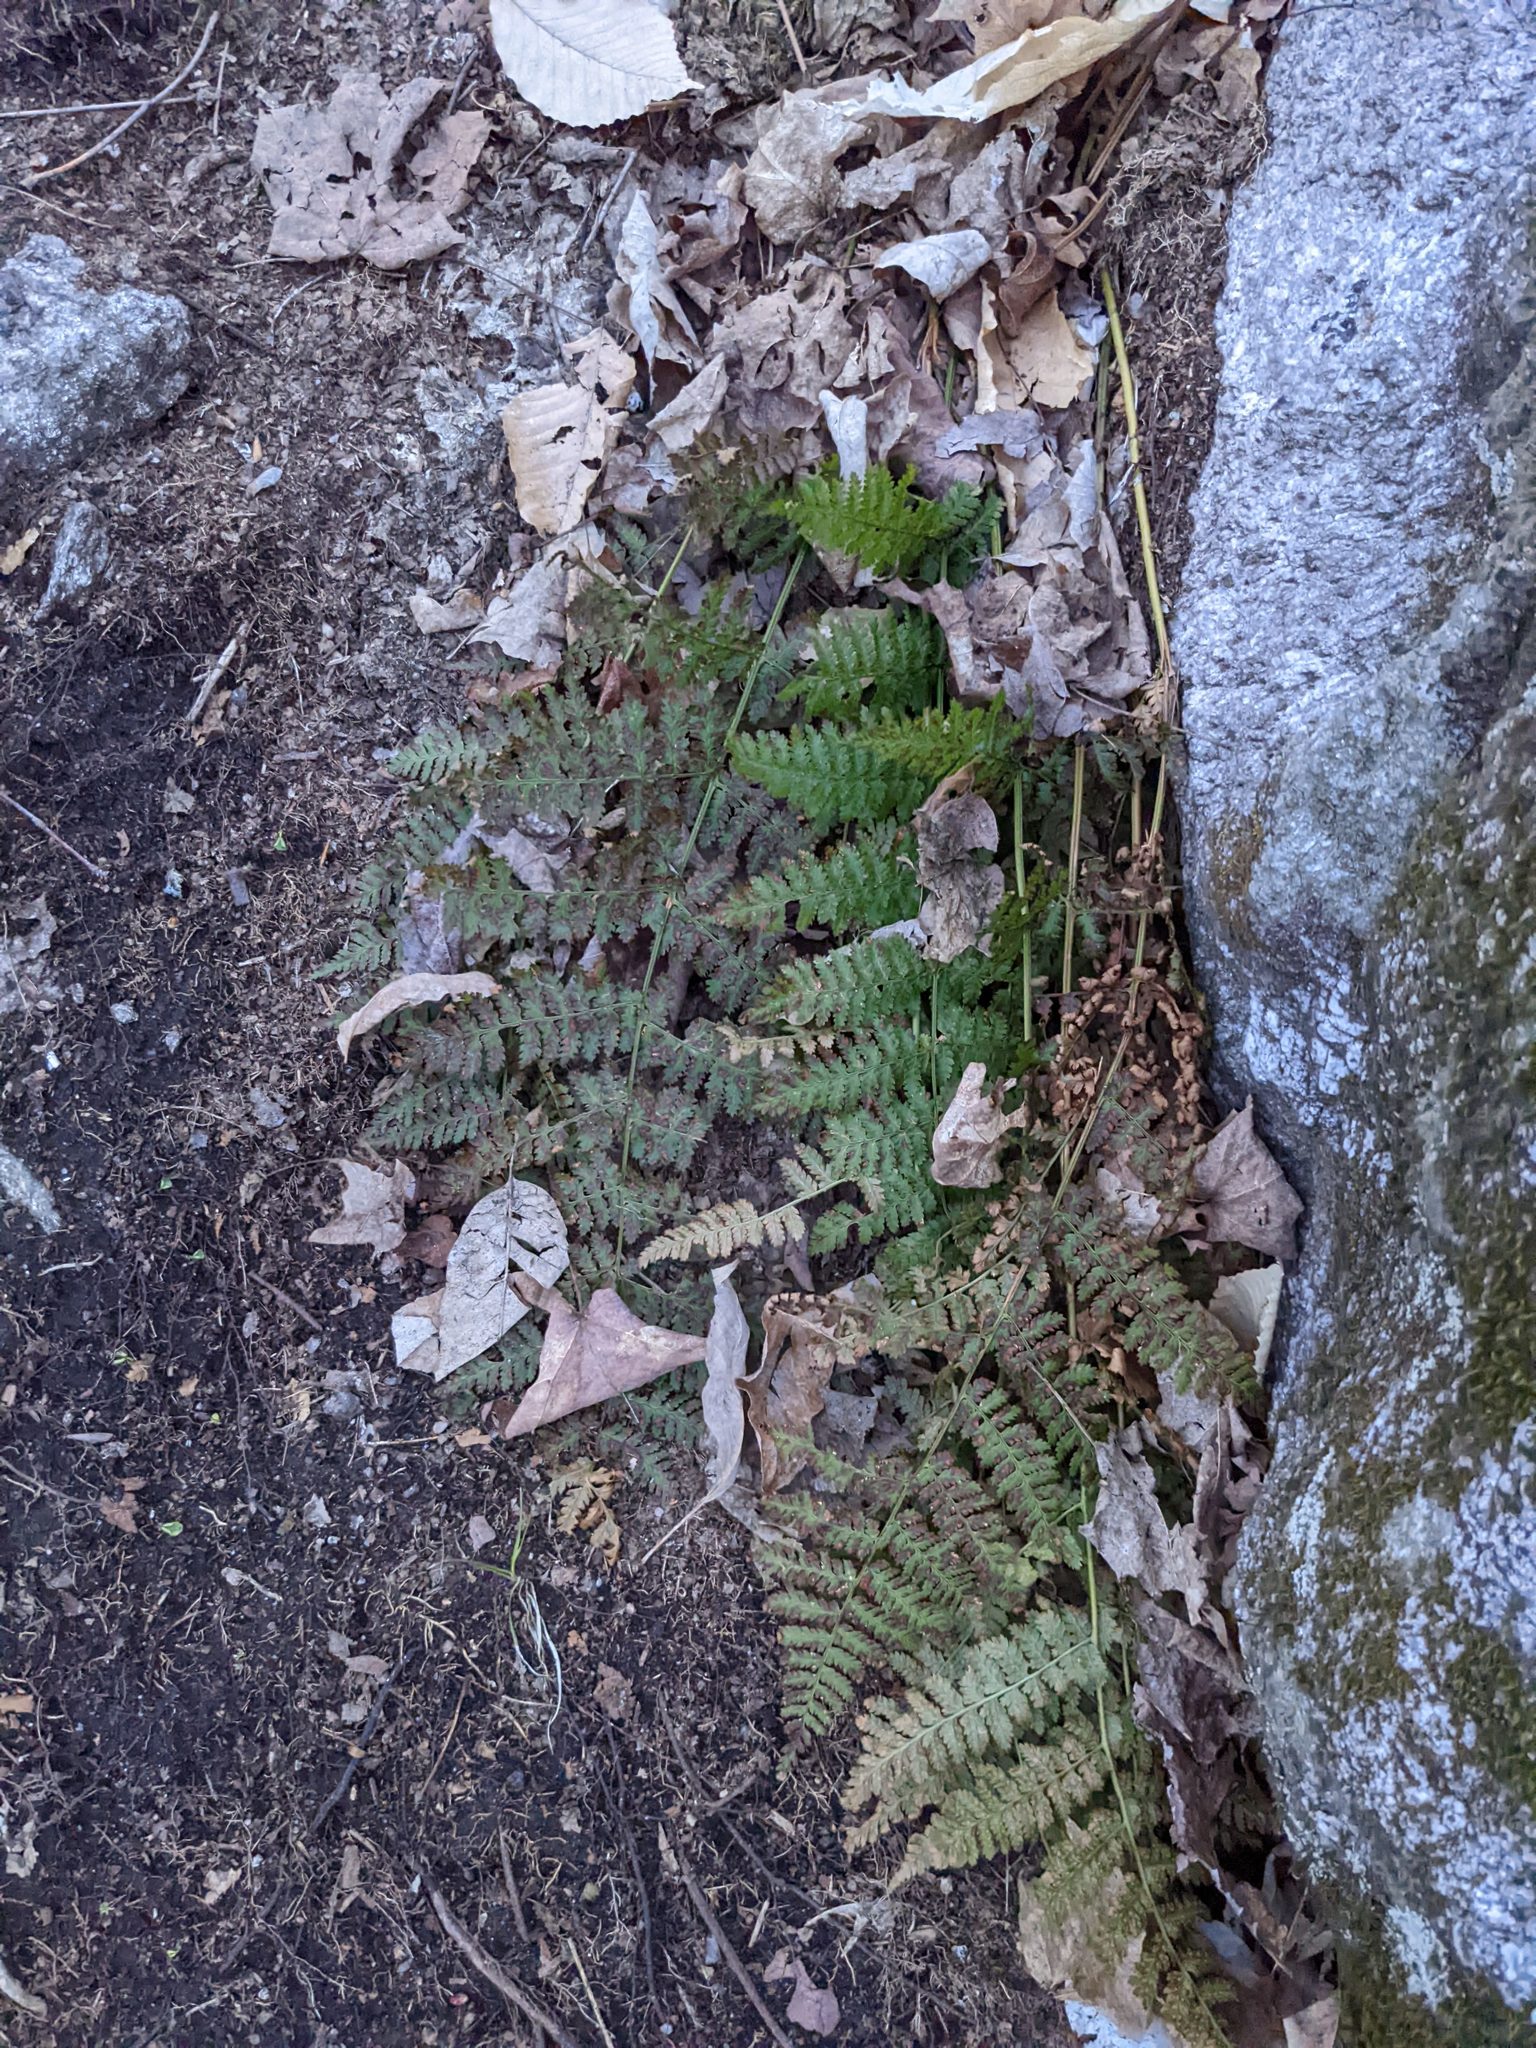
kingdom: Plantae
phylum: Tracheophyta
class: Polypodiopsida
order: Polypodiales
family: Dryopteridaceae
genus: Dryopteris
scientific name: Dryopteris intermedia
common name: Evergreen wood fern
